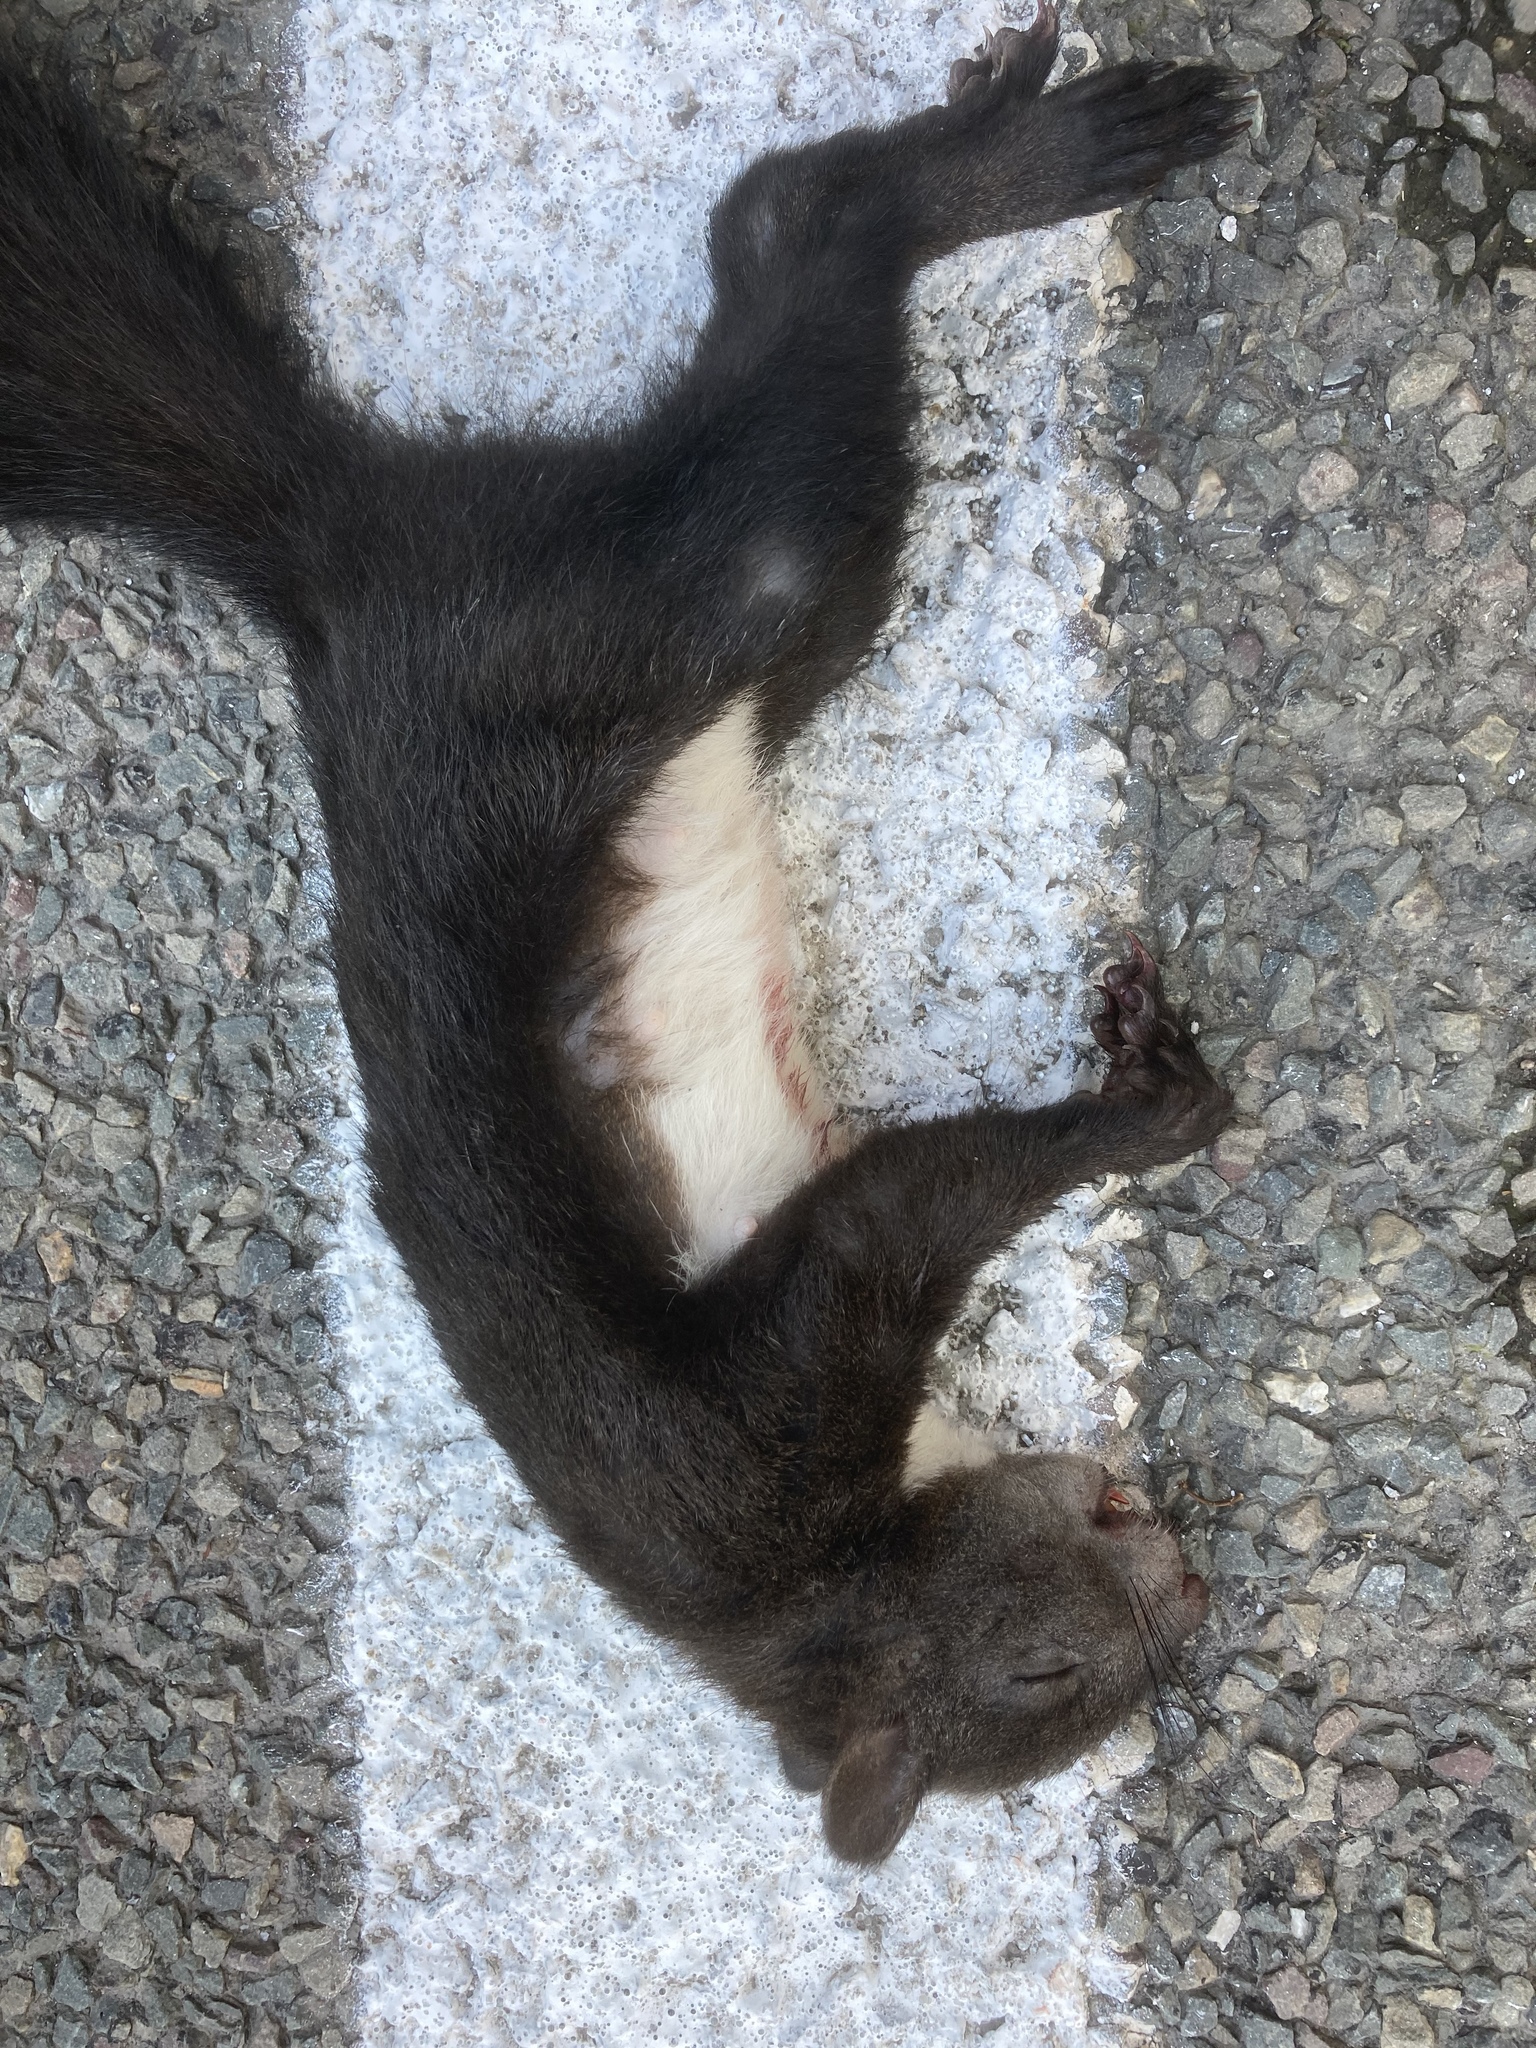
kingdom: Animalia
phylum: Chordata
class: Mammalia
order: Rodentia
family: Sciuridae
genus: Sciurus
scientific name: Sciurus vulgaris
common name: Eurasian red squirrel
